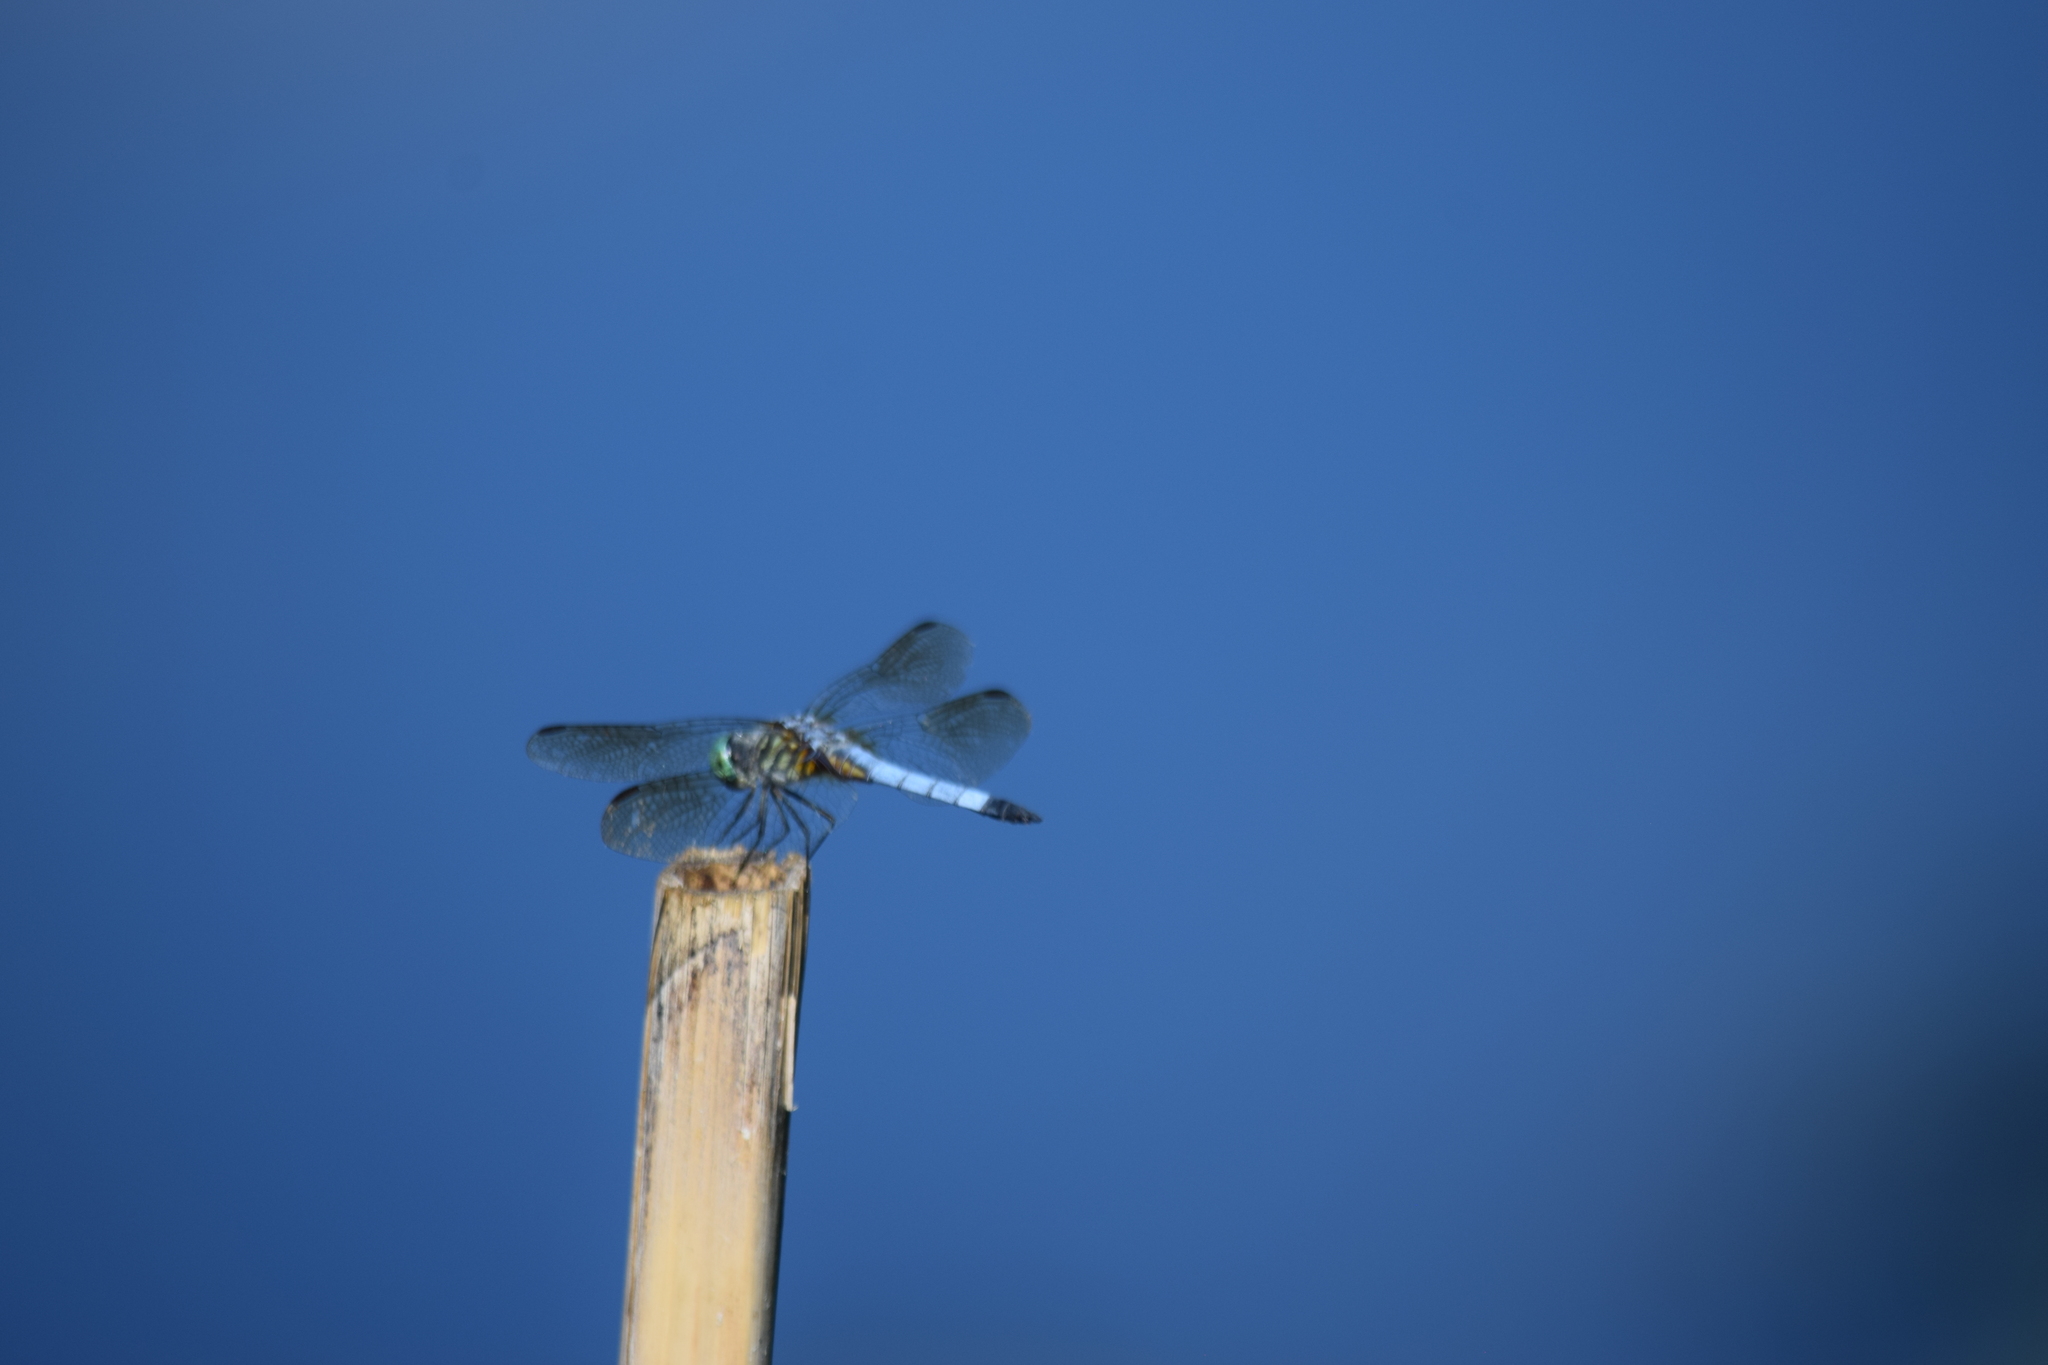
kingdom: Animalia
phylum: Arthropoda
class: Insecta
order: Odonata
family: Libellulidae
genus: Pachydiplax
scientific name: Pachydiplax longipennis
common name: Blue dasher
